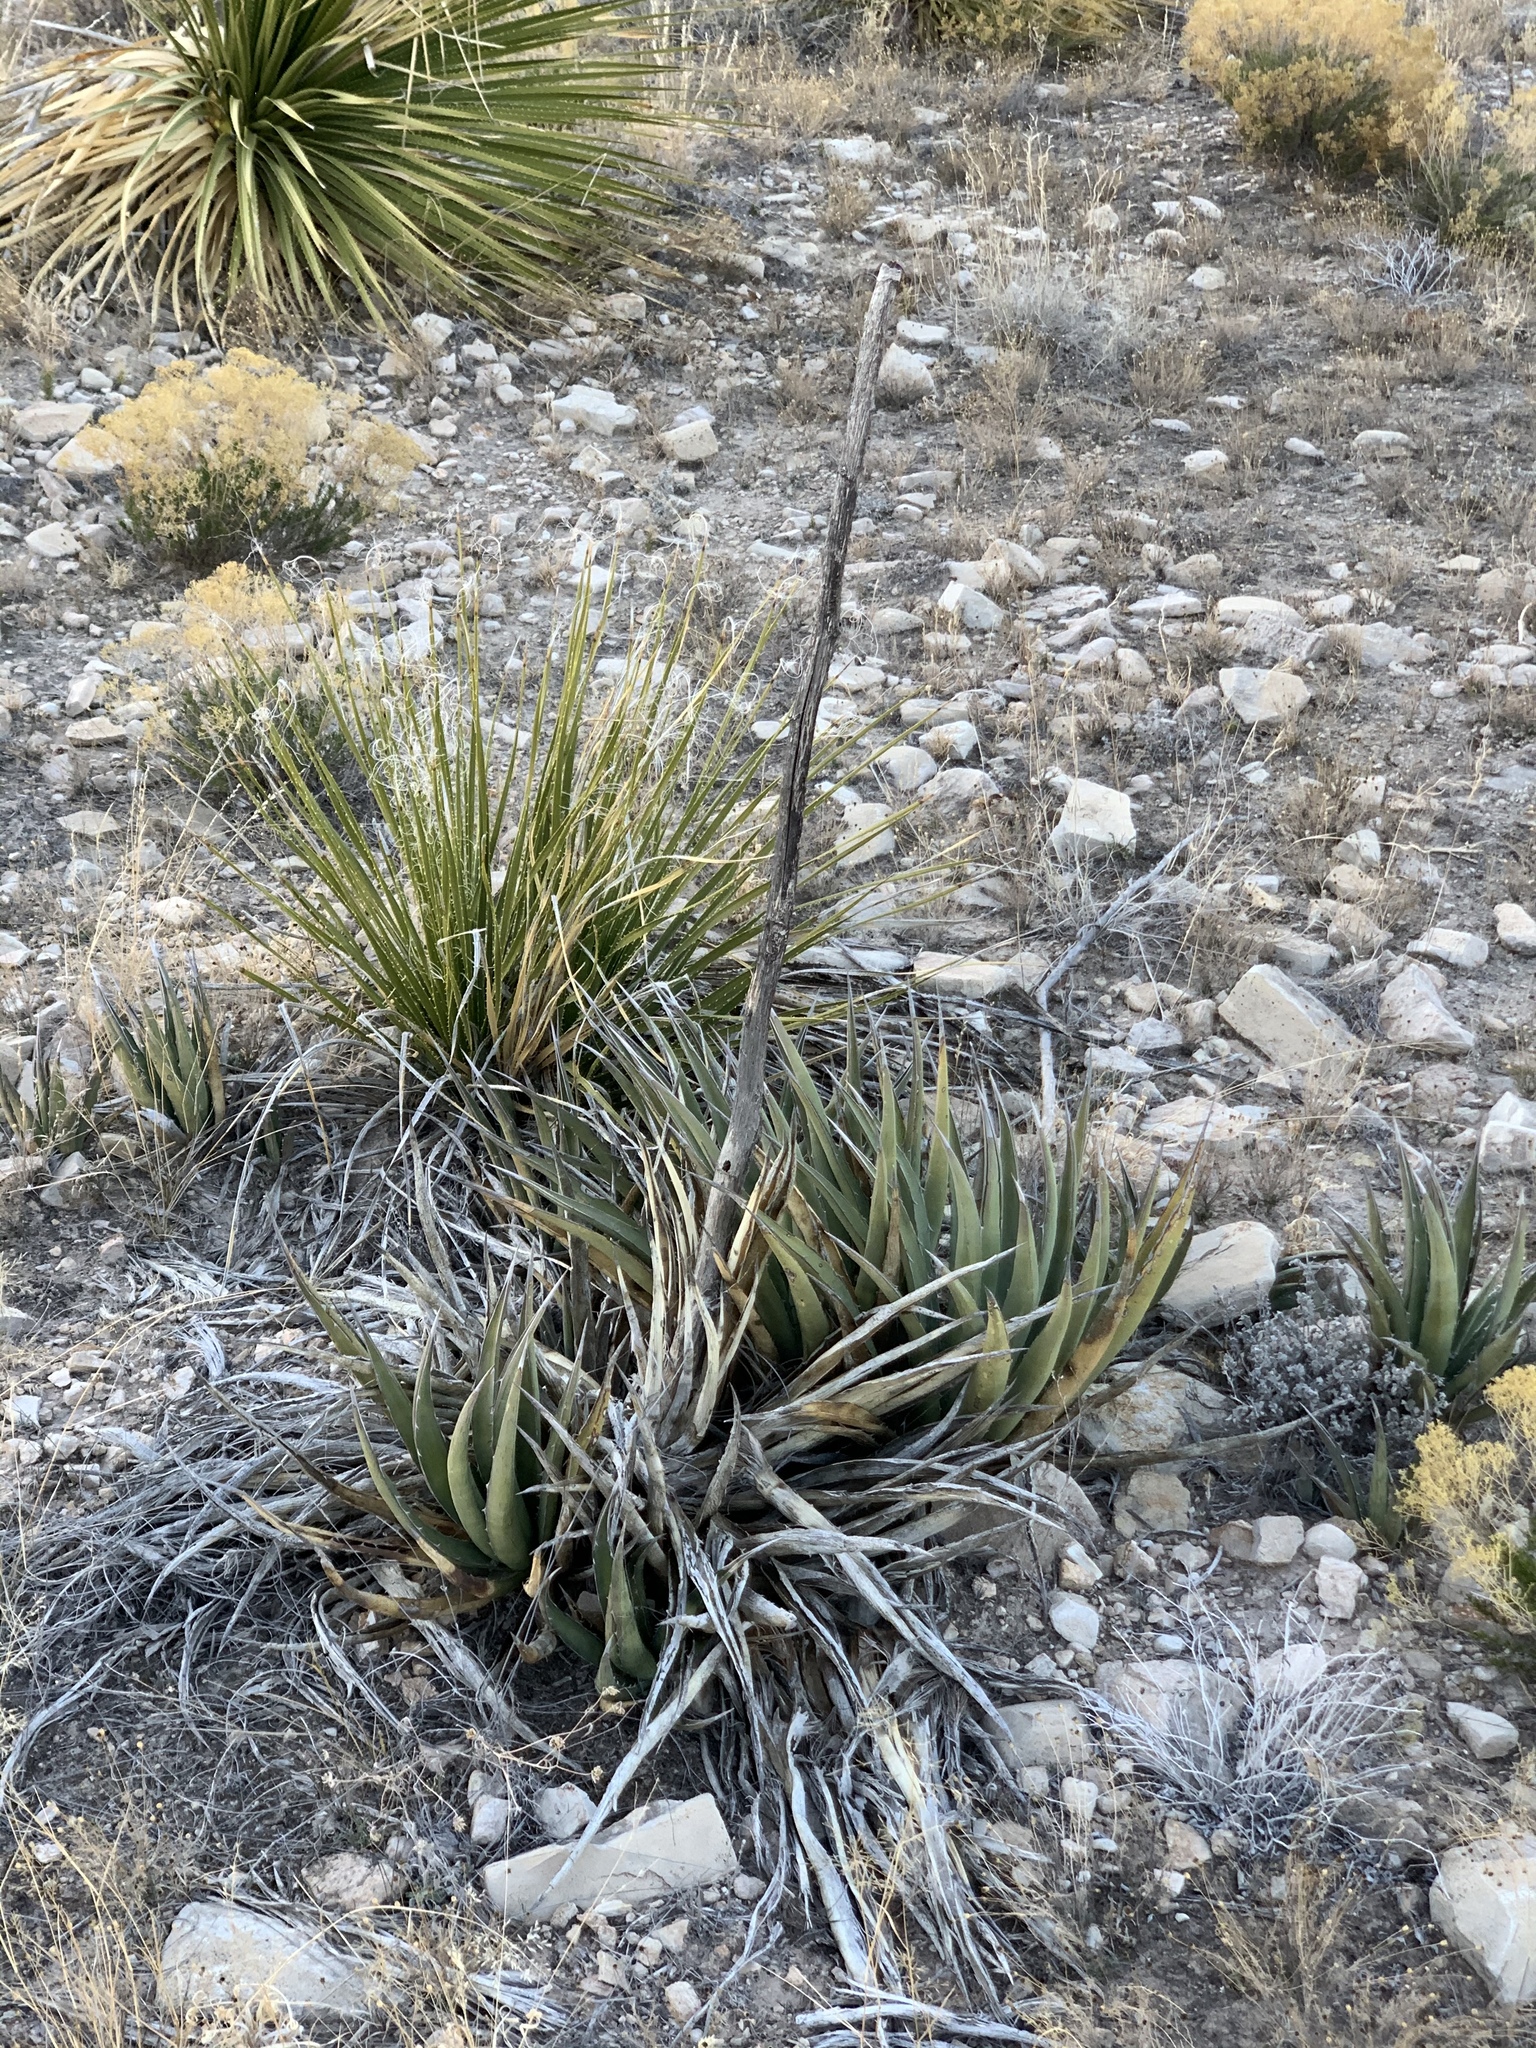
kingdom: Plantae
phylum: Tracheophyta
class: Liliopsida
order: Asparagales
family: Asparagaceae
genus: Agave
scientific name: Agave lechuguilla
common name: Lecheguilla agave
